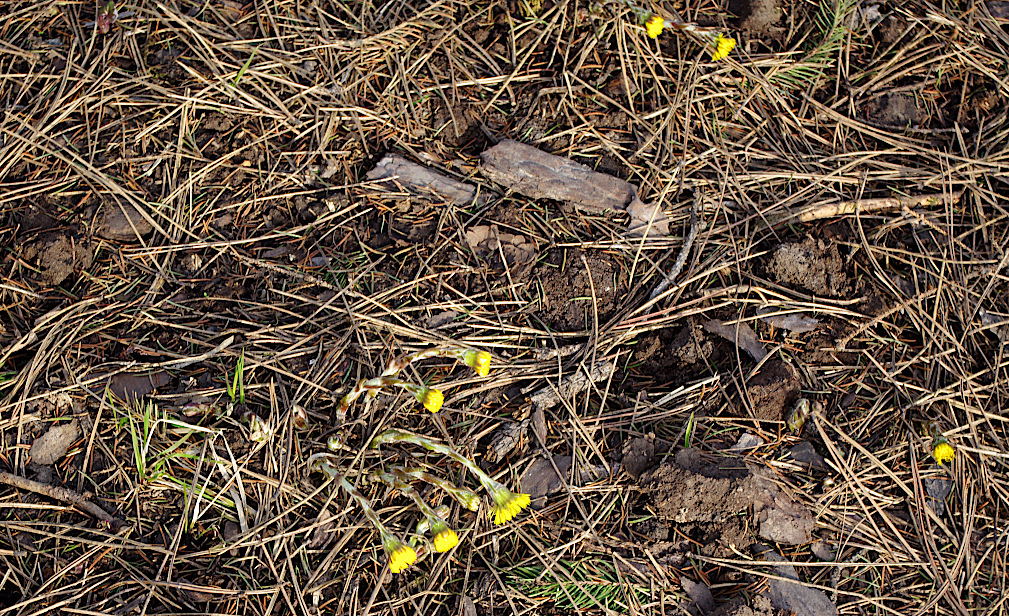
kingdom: Plantae
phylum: Tracheophyta
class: Magnoliopsida
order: Asterales
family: Asteraceae
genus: Tussilago
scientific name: Tussilago farfara
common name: Coltsfoot
